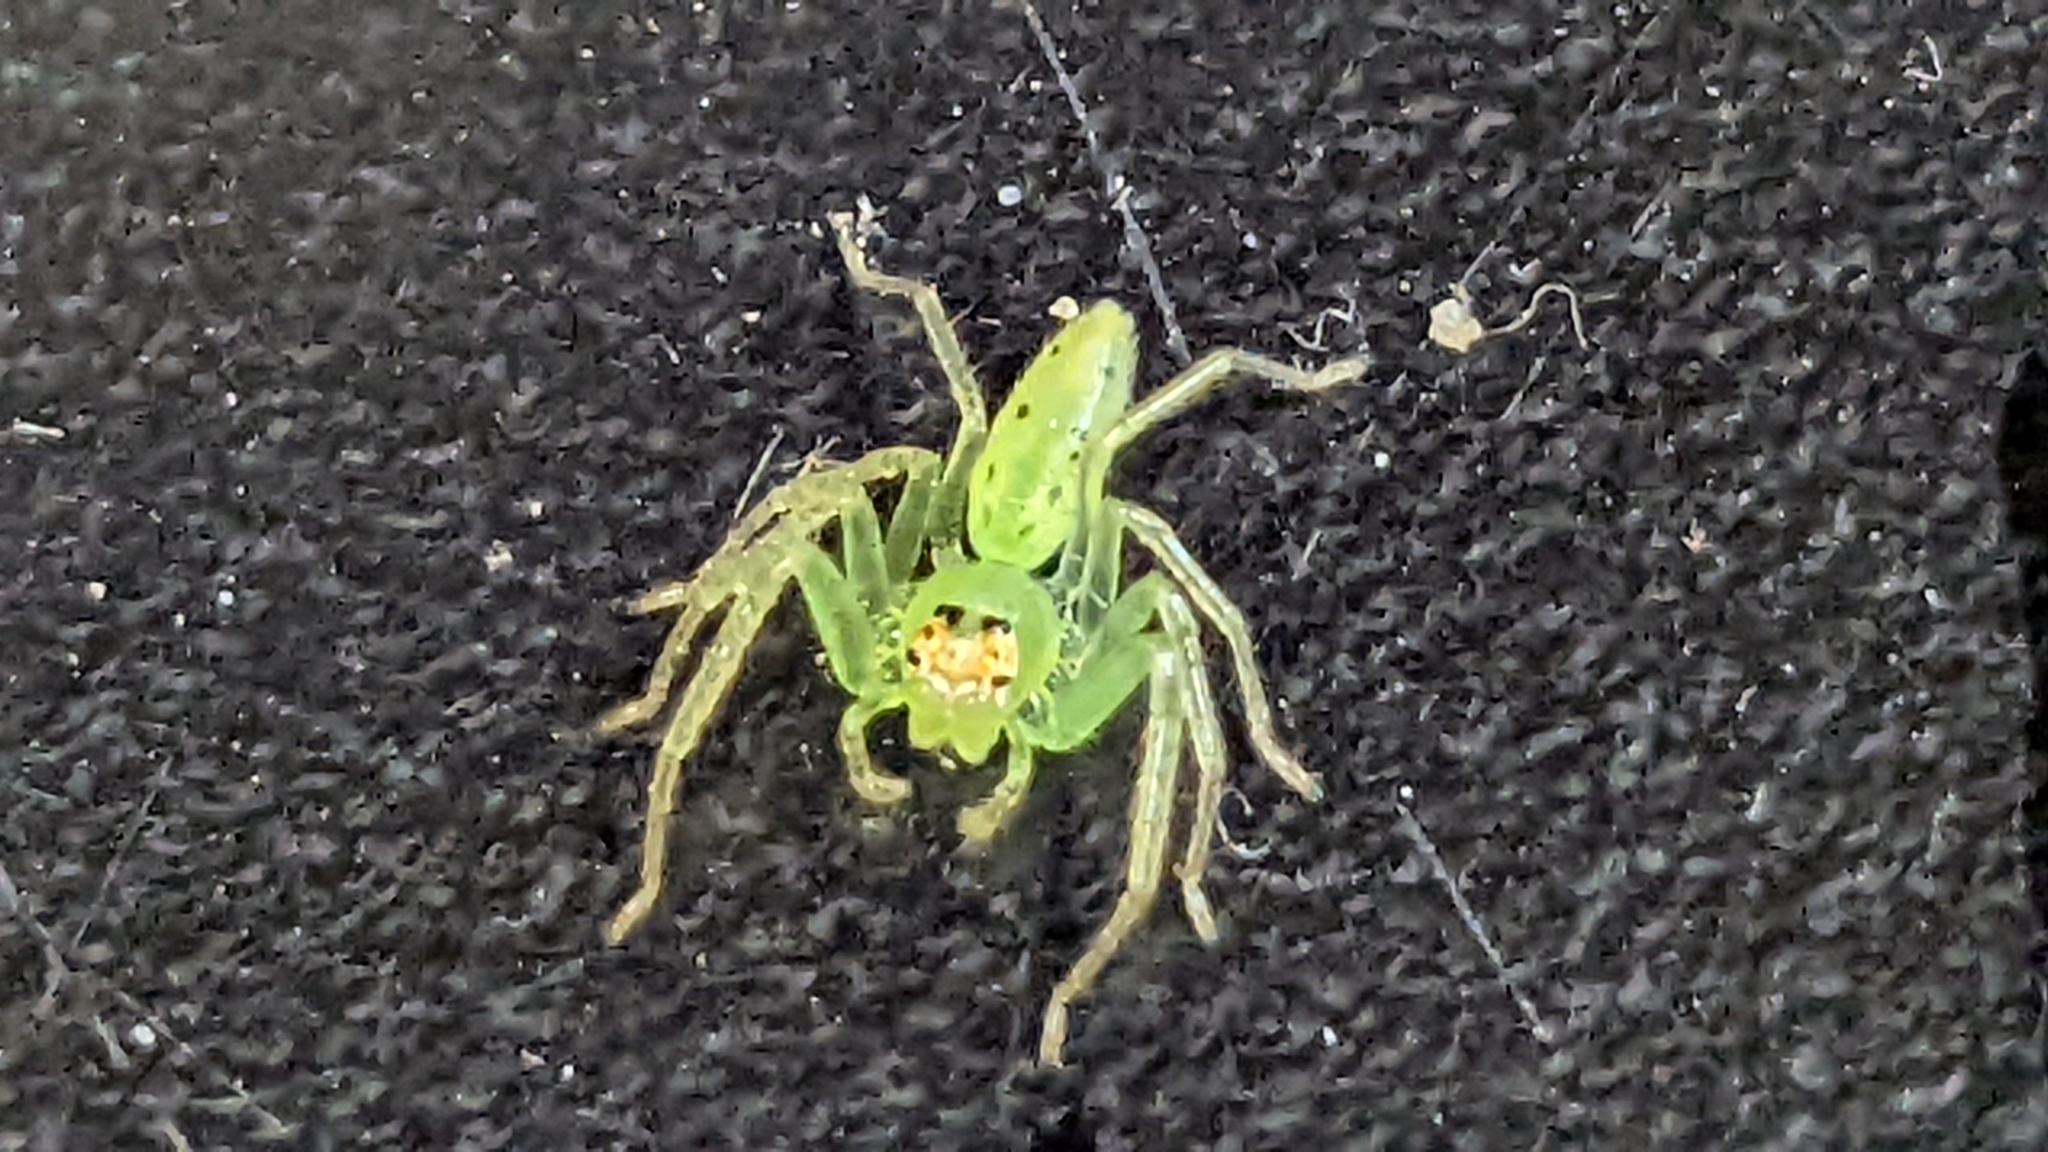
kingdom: Animalia
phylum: Arthropoda
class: Arachnida
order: Araneae
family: Salticidae
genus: Lyssomanes
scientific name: Lyssomanes viridis
